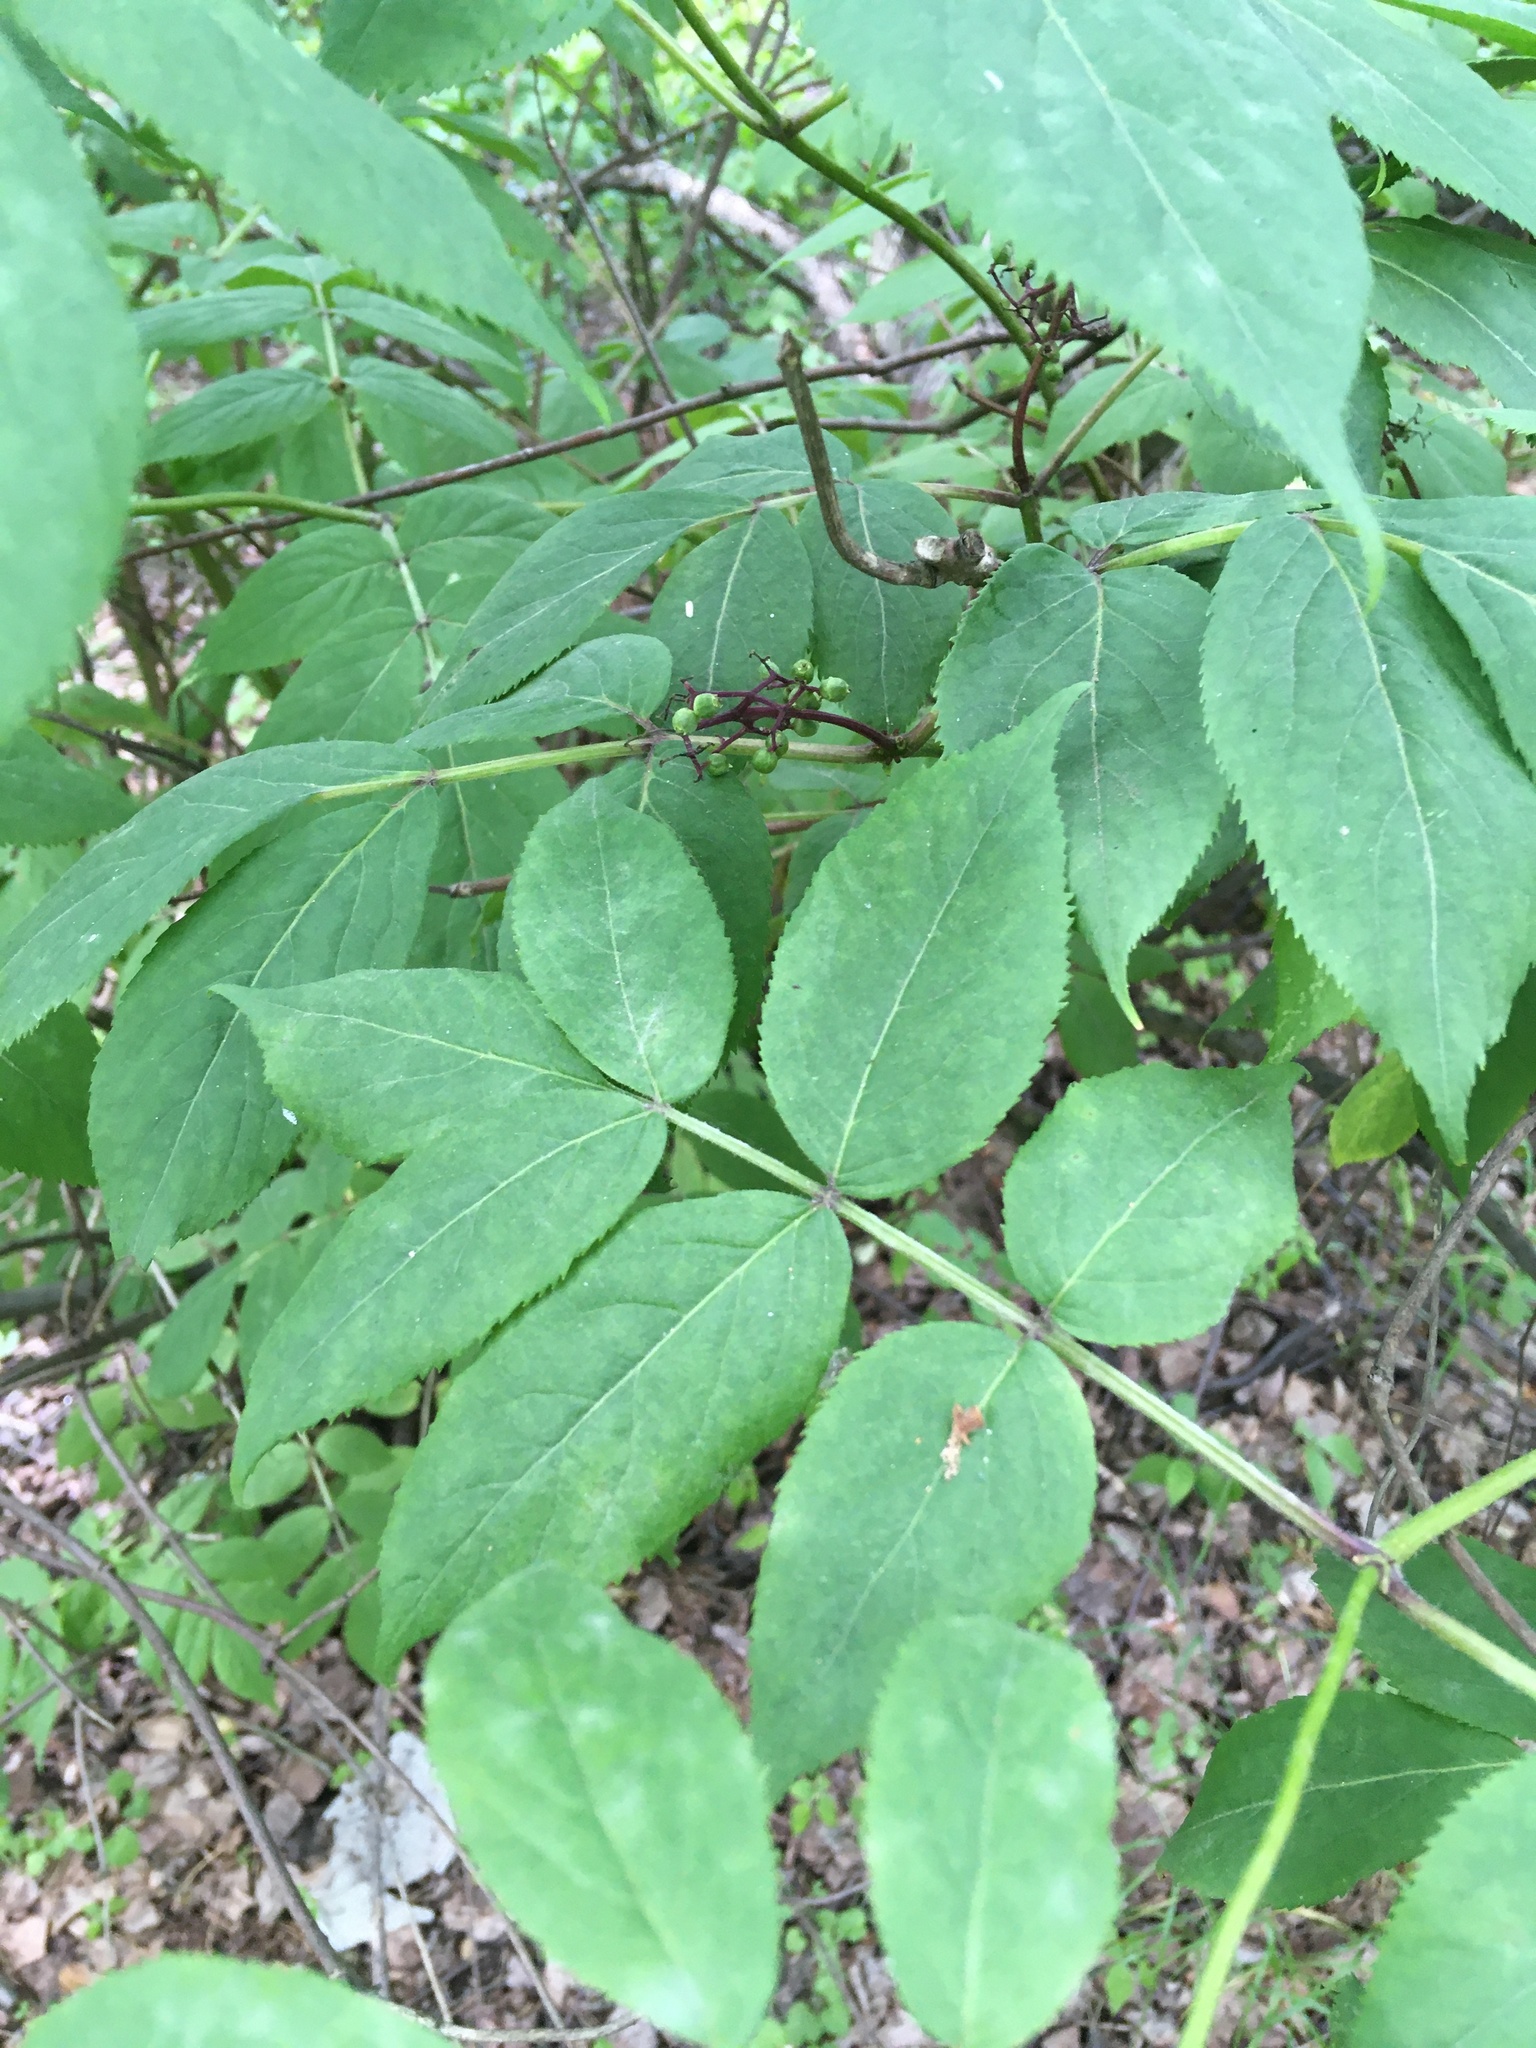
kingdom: Plantae
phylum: Tracheophyta
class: Magnoliopsida
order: Dipsacales
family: Viburnaceae
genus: Sambucus
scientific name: Sambucus racemosa
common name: Red-berried elder
